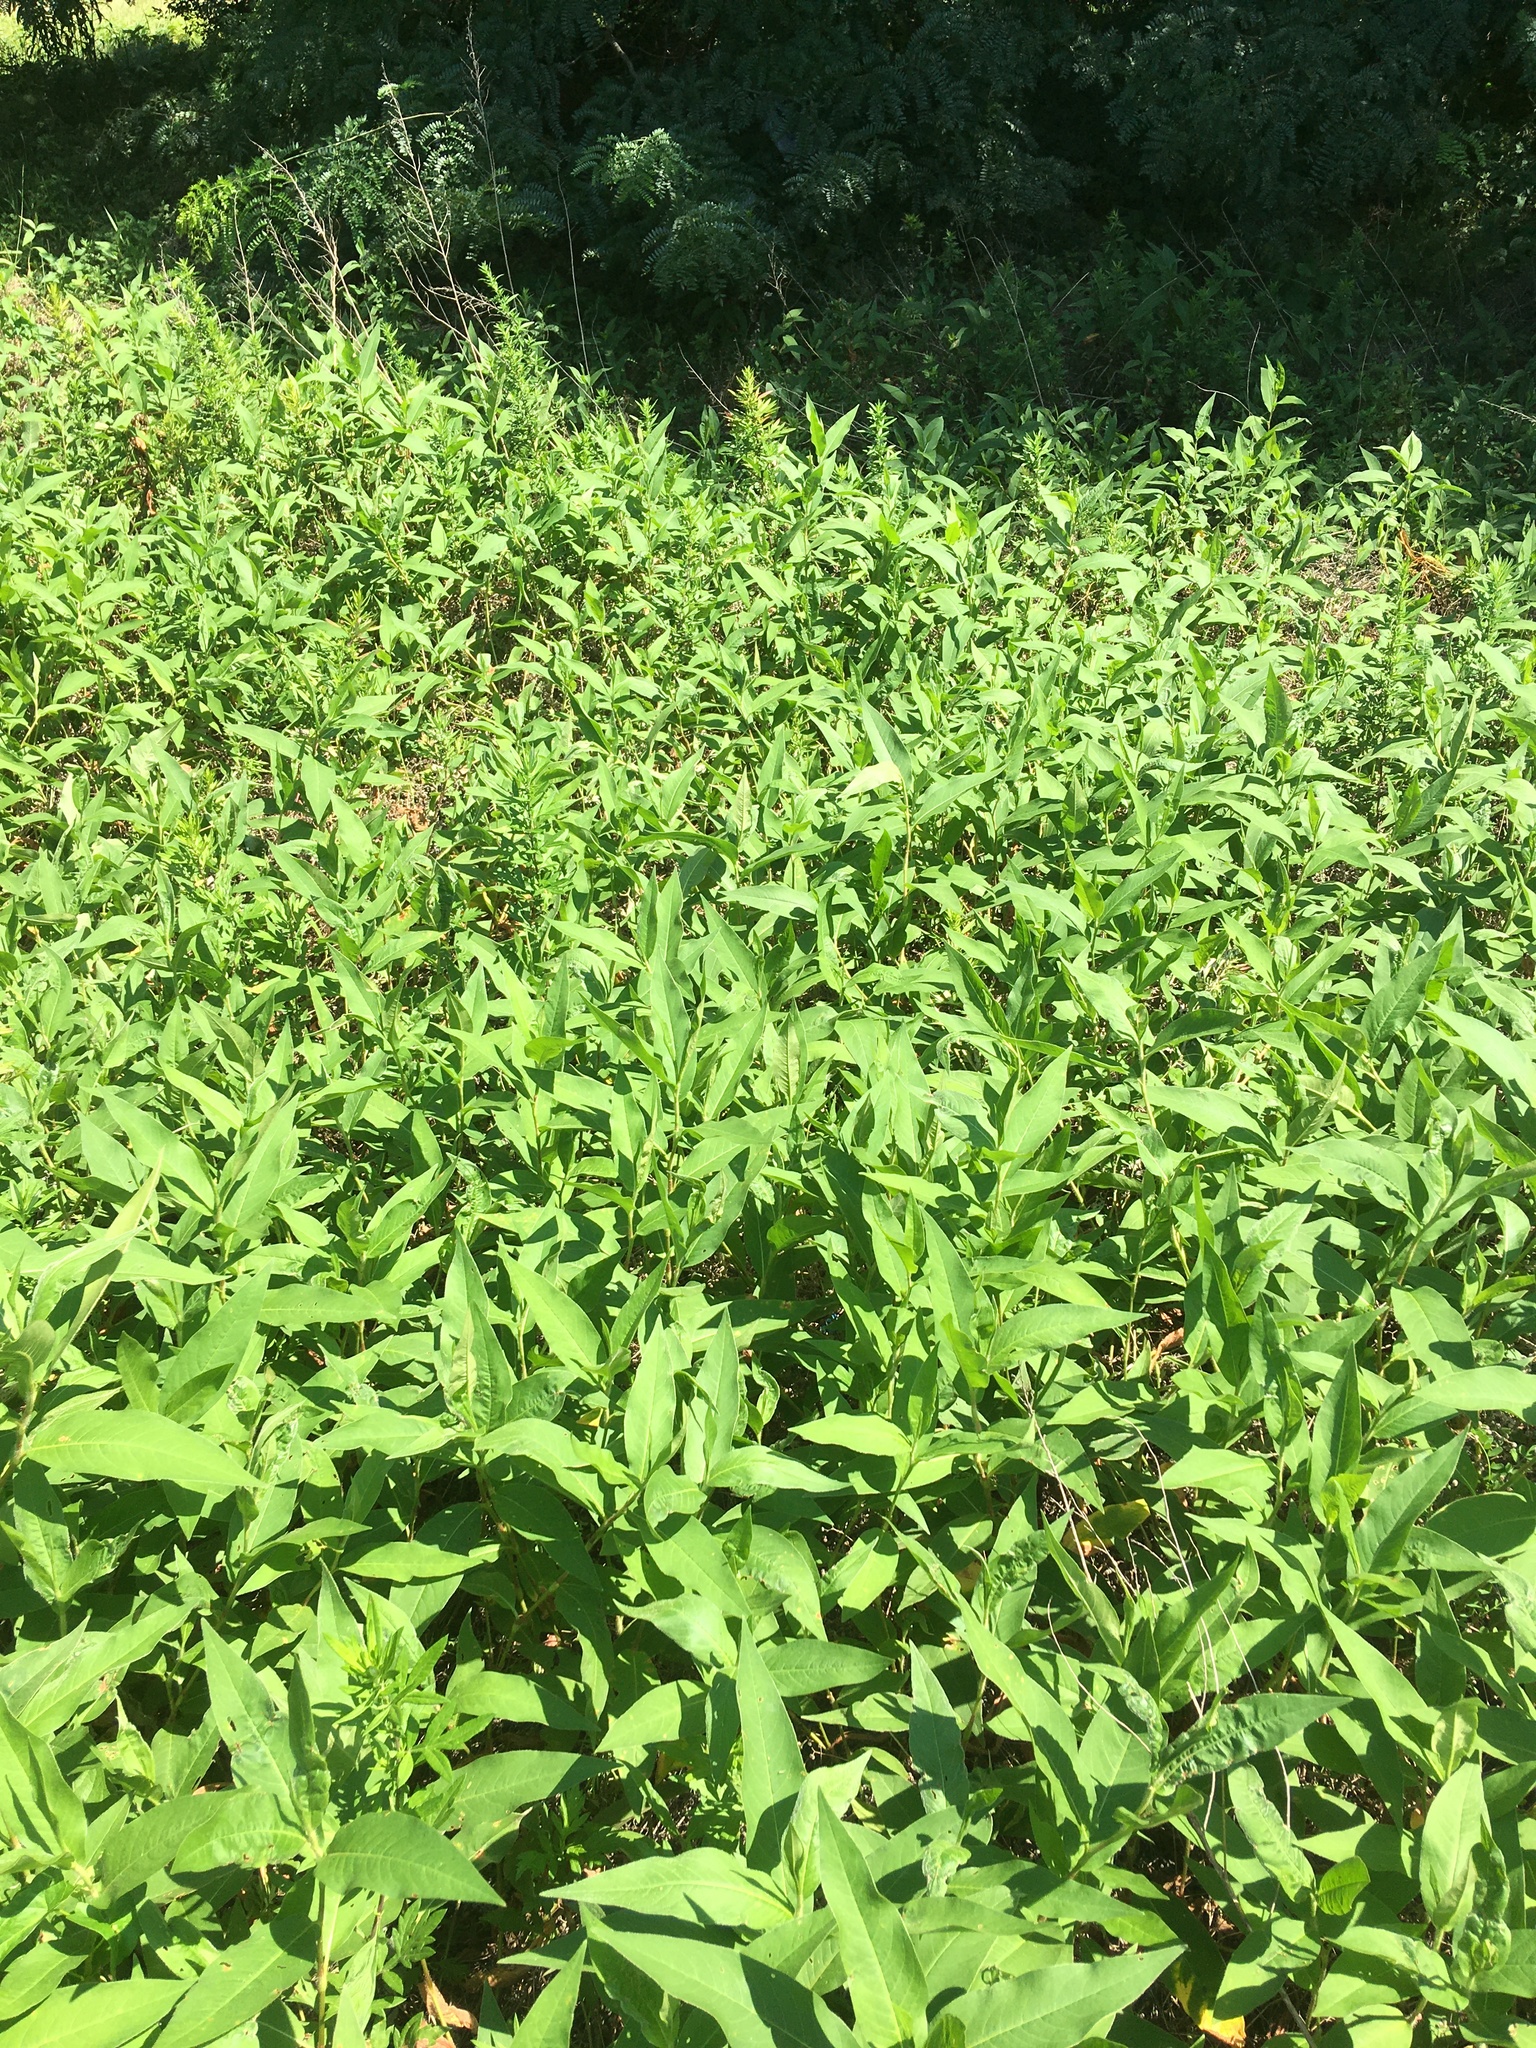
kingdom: Plantae
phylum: Tracheophyta
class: Magnoliopsida
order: Caryophyllales
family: Polygonaceae
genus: Persicaria
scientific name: Persicaria amphibia
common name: Amphibious bistort
